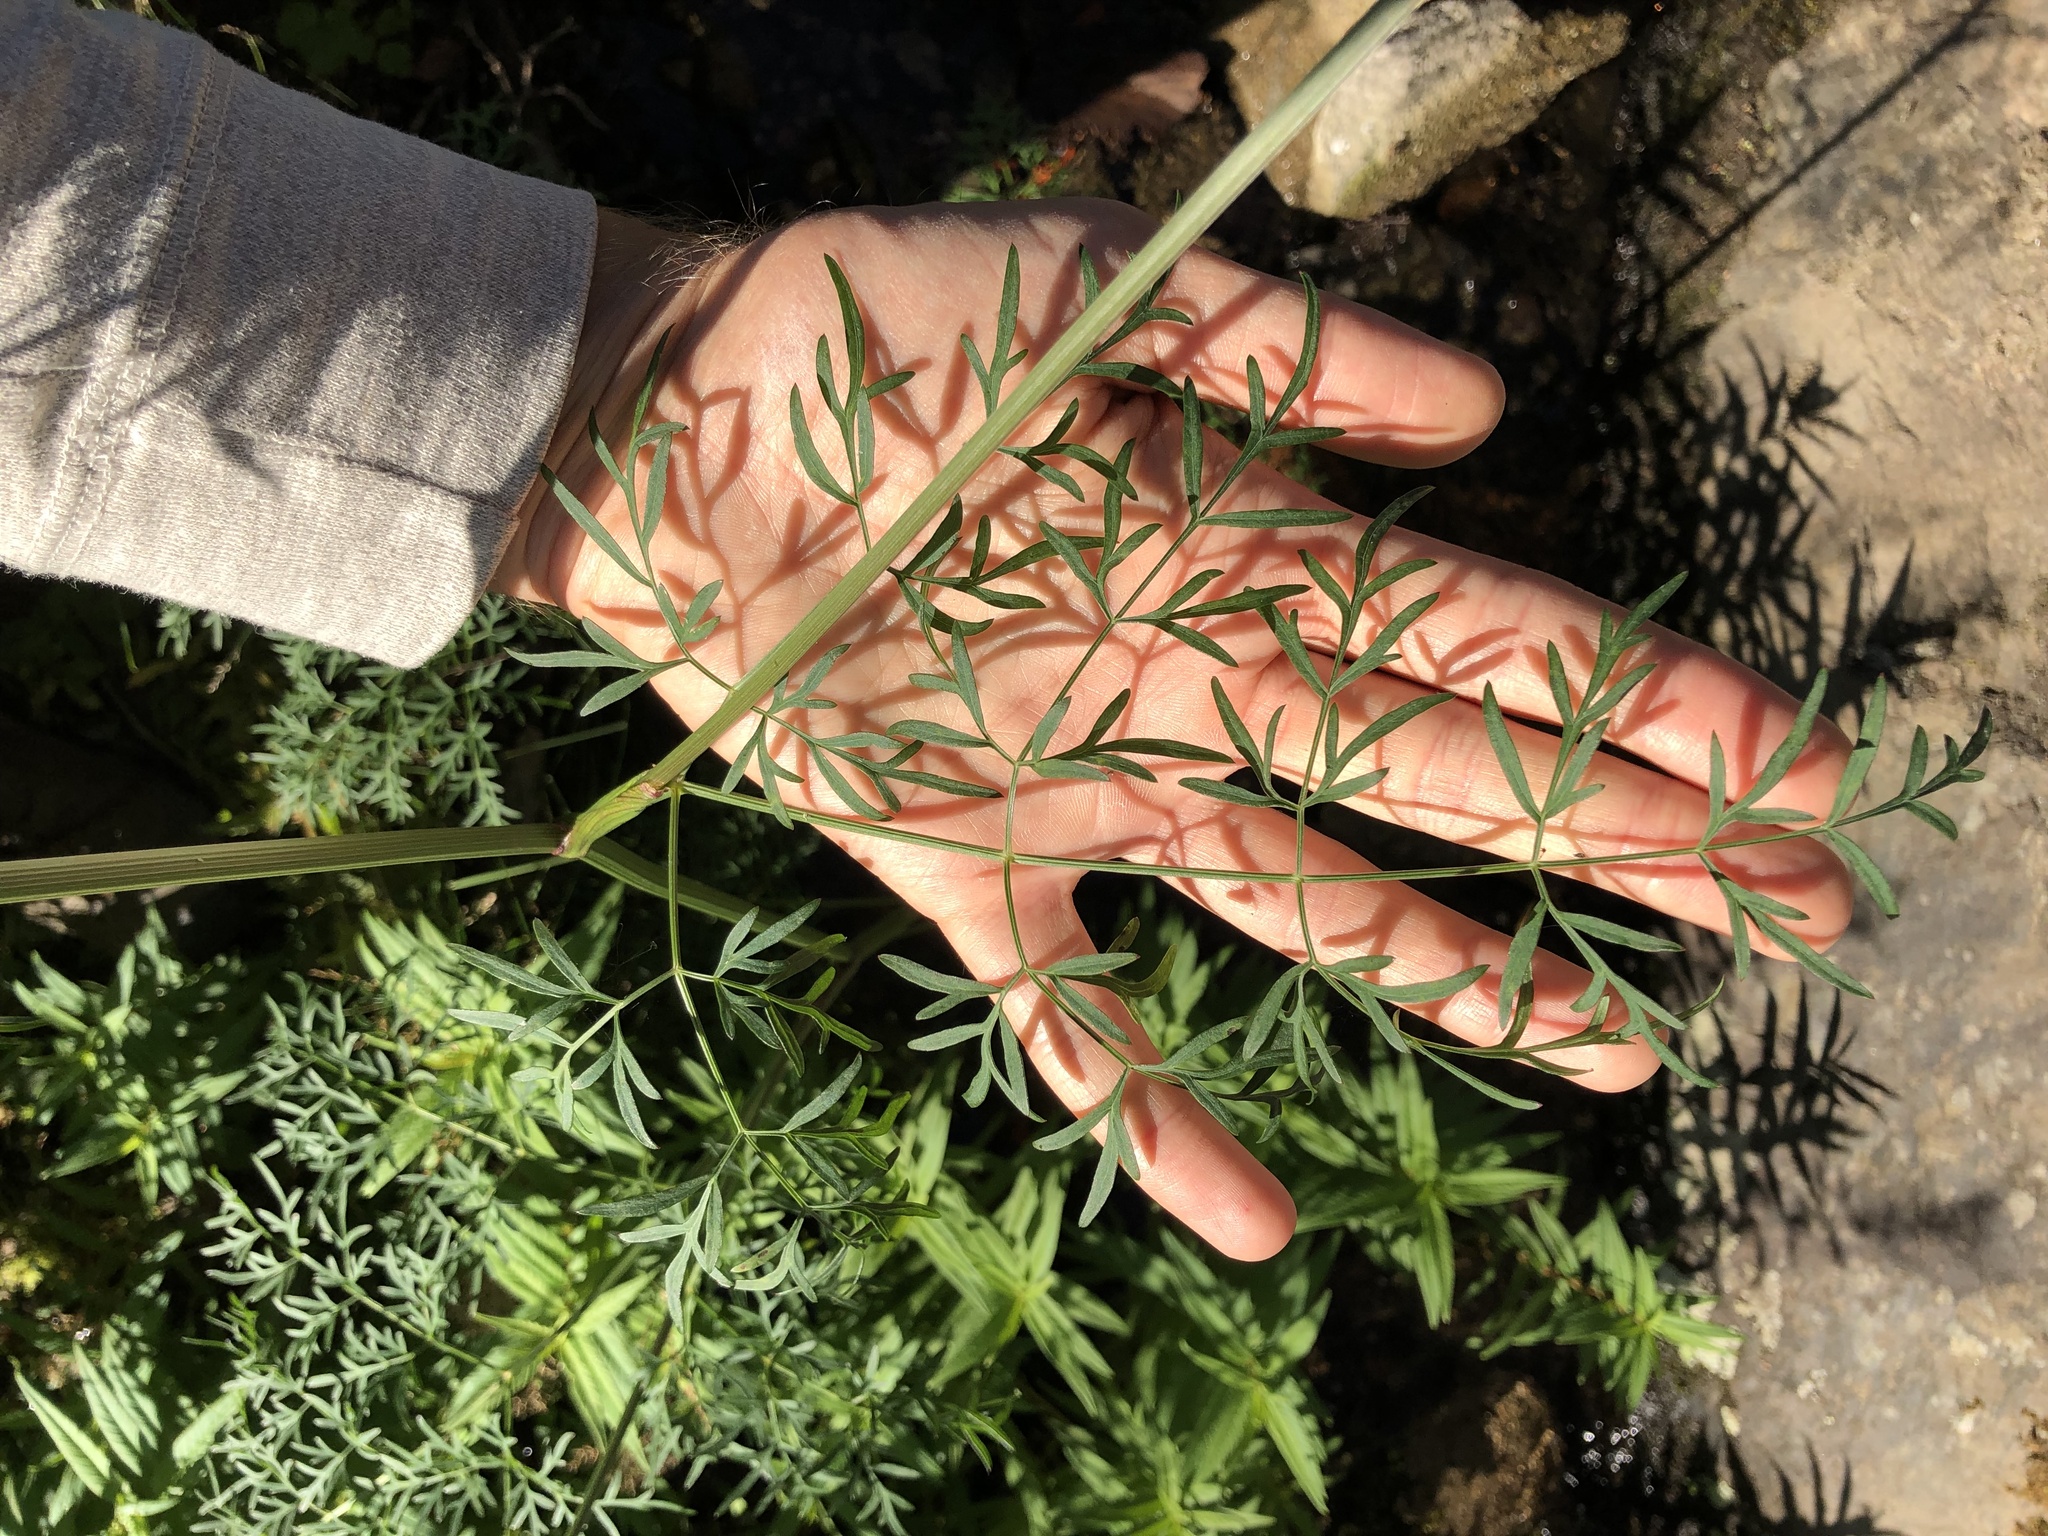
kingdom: Plantae
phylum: Tracheophyta
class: Magnoliopsida
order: Apiales
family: Apiaceae
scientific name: Apiaceae
